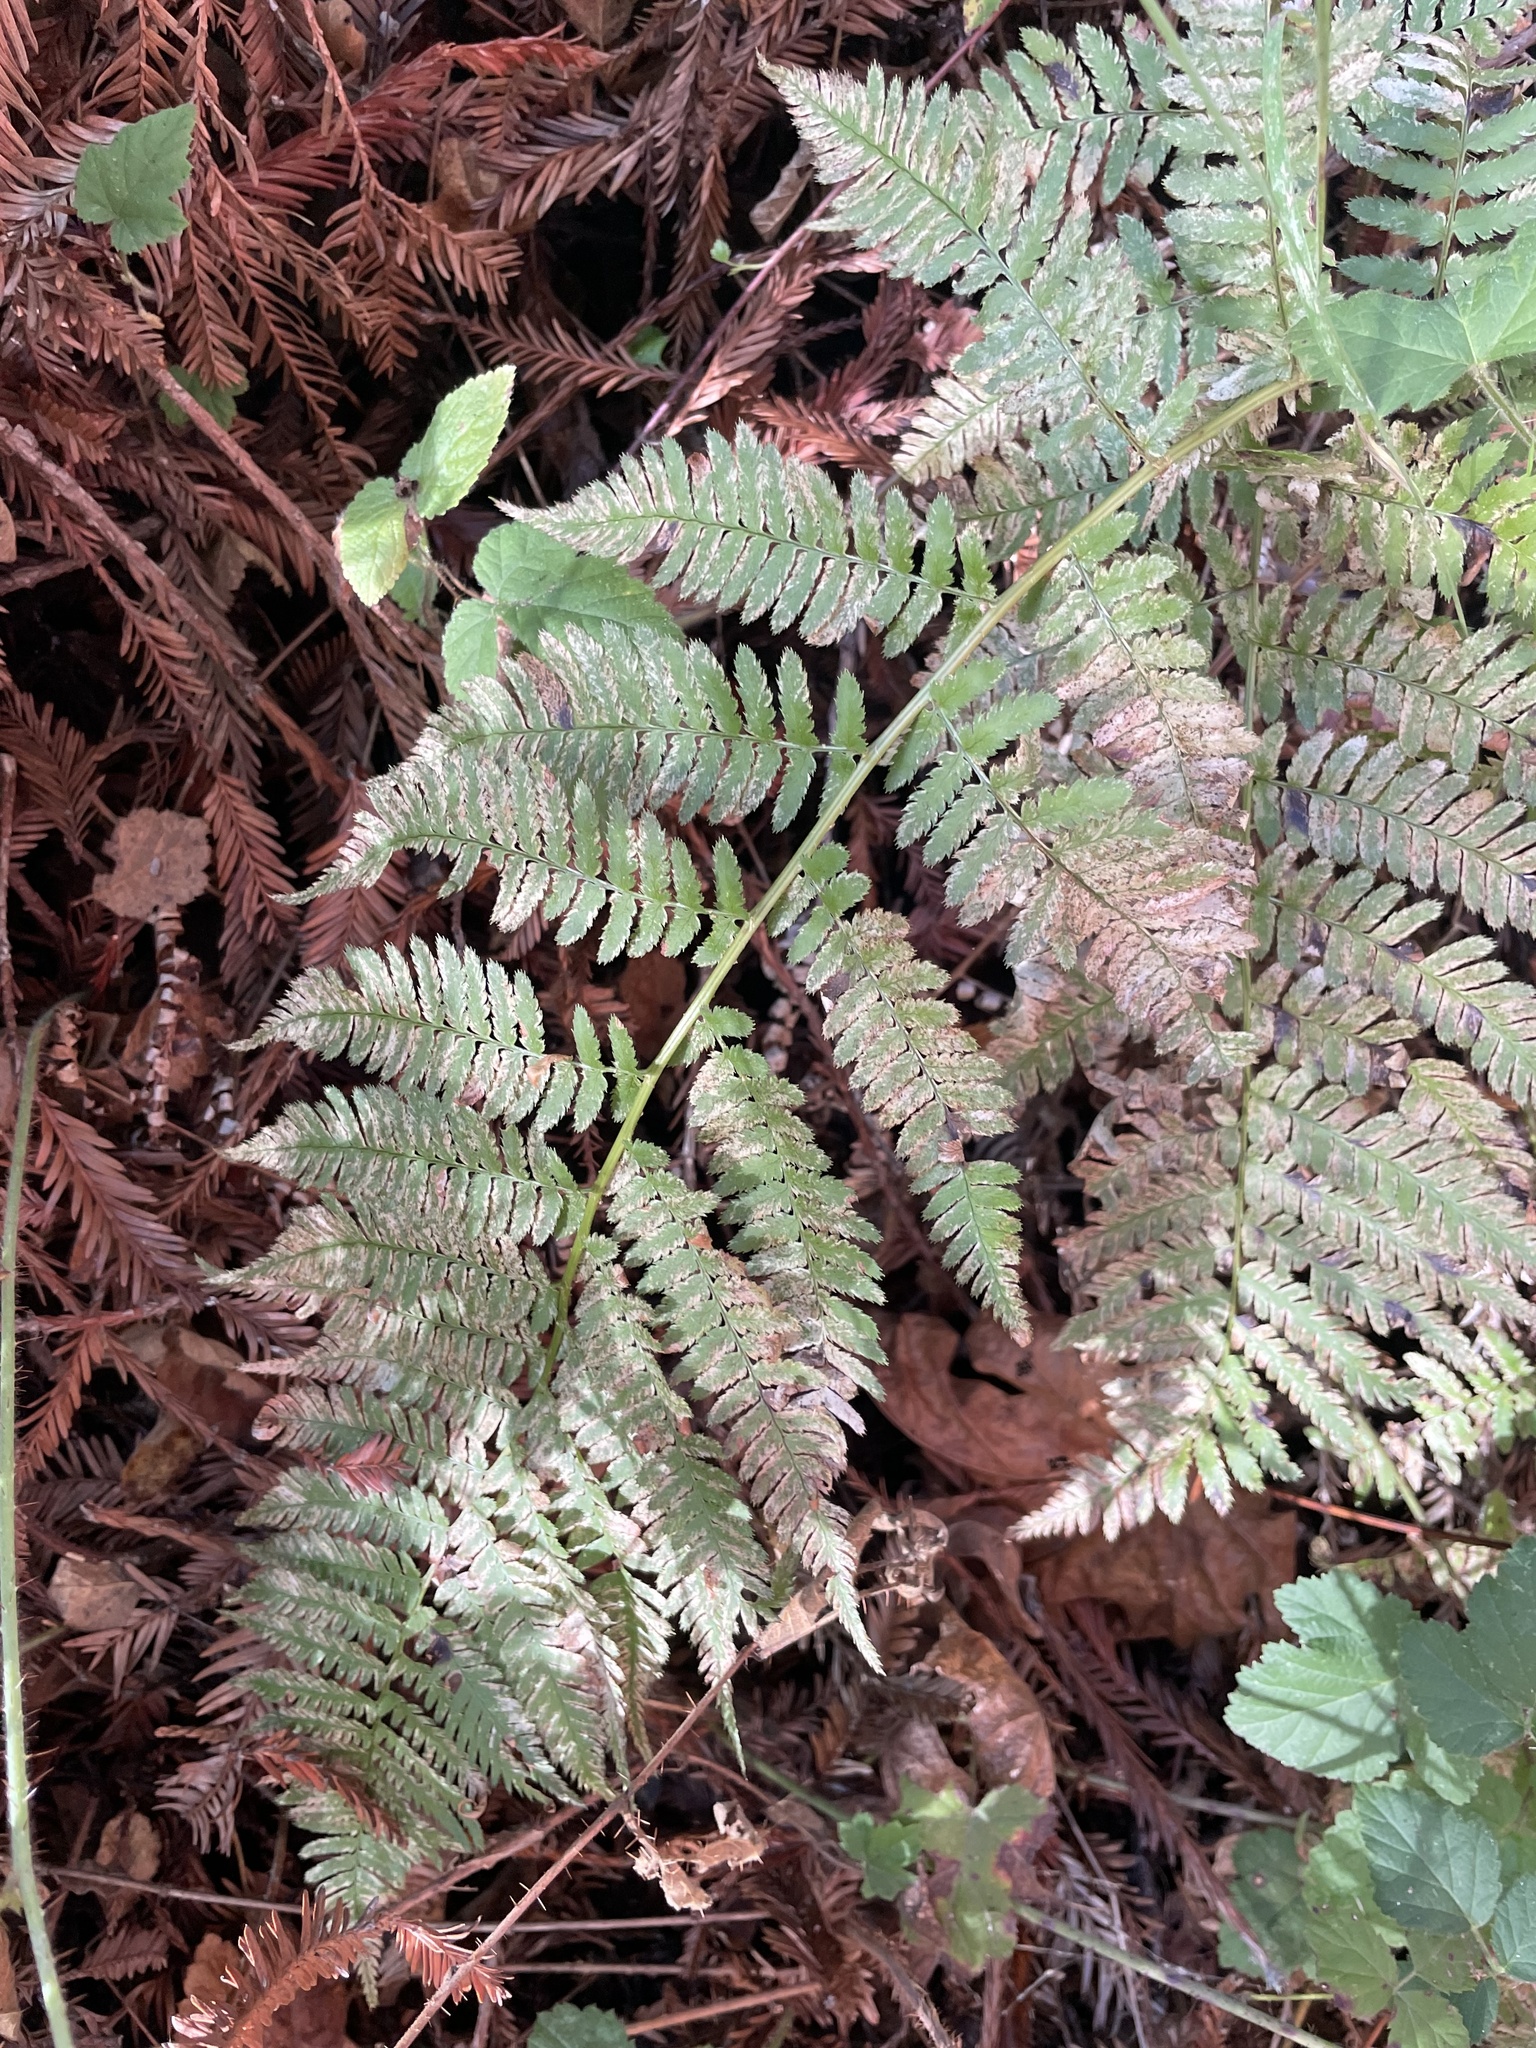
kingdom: Plantae
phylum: Tracheophyta
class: Polypodiopsida
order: Polypodiales
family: Dryopteridaceae
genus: Dryopteris
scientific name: Dryopteris arguta
